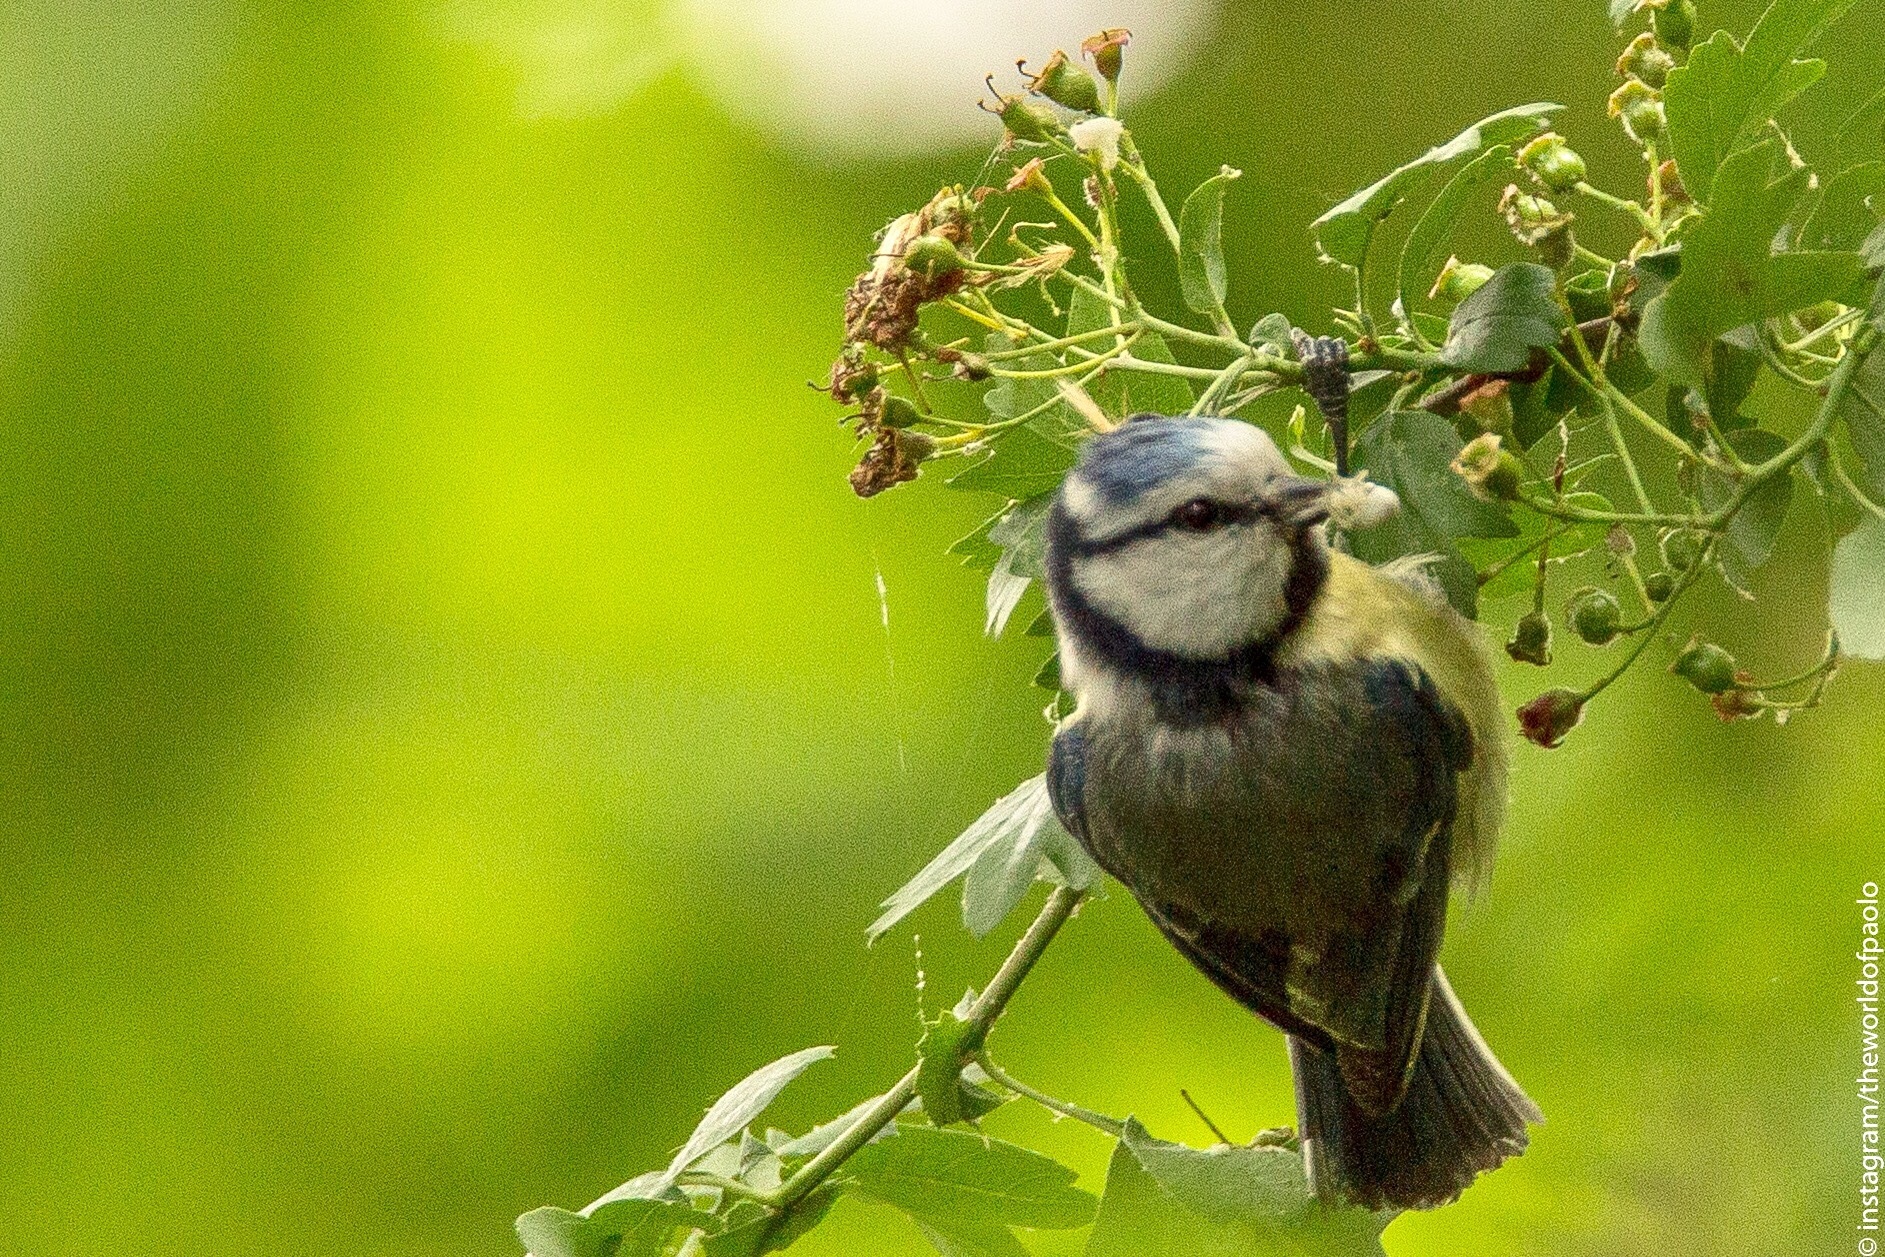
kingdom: Animalia
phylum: Chordata
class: Aves
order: Passeriformes
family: Paridae
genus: Cyanistes
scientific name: Cyanistes caeruleus
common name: Eurasian blue tit
